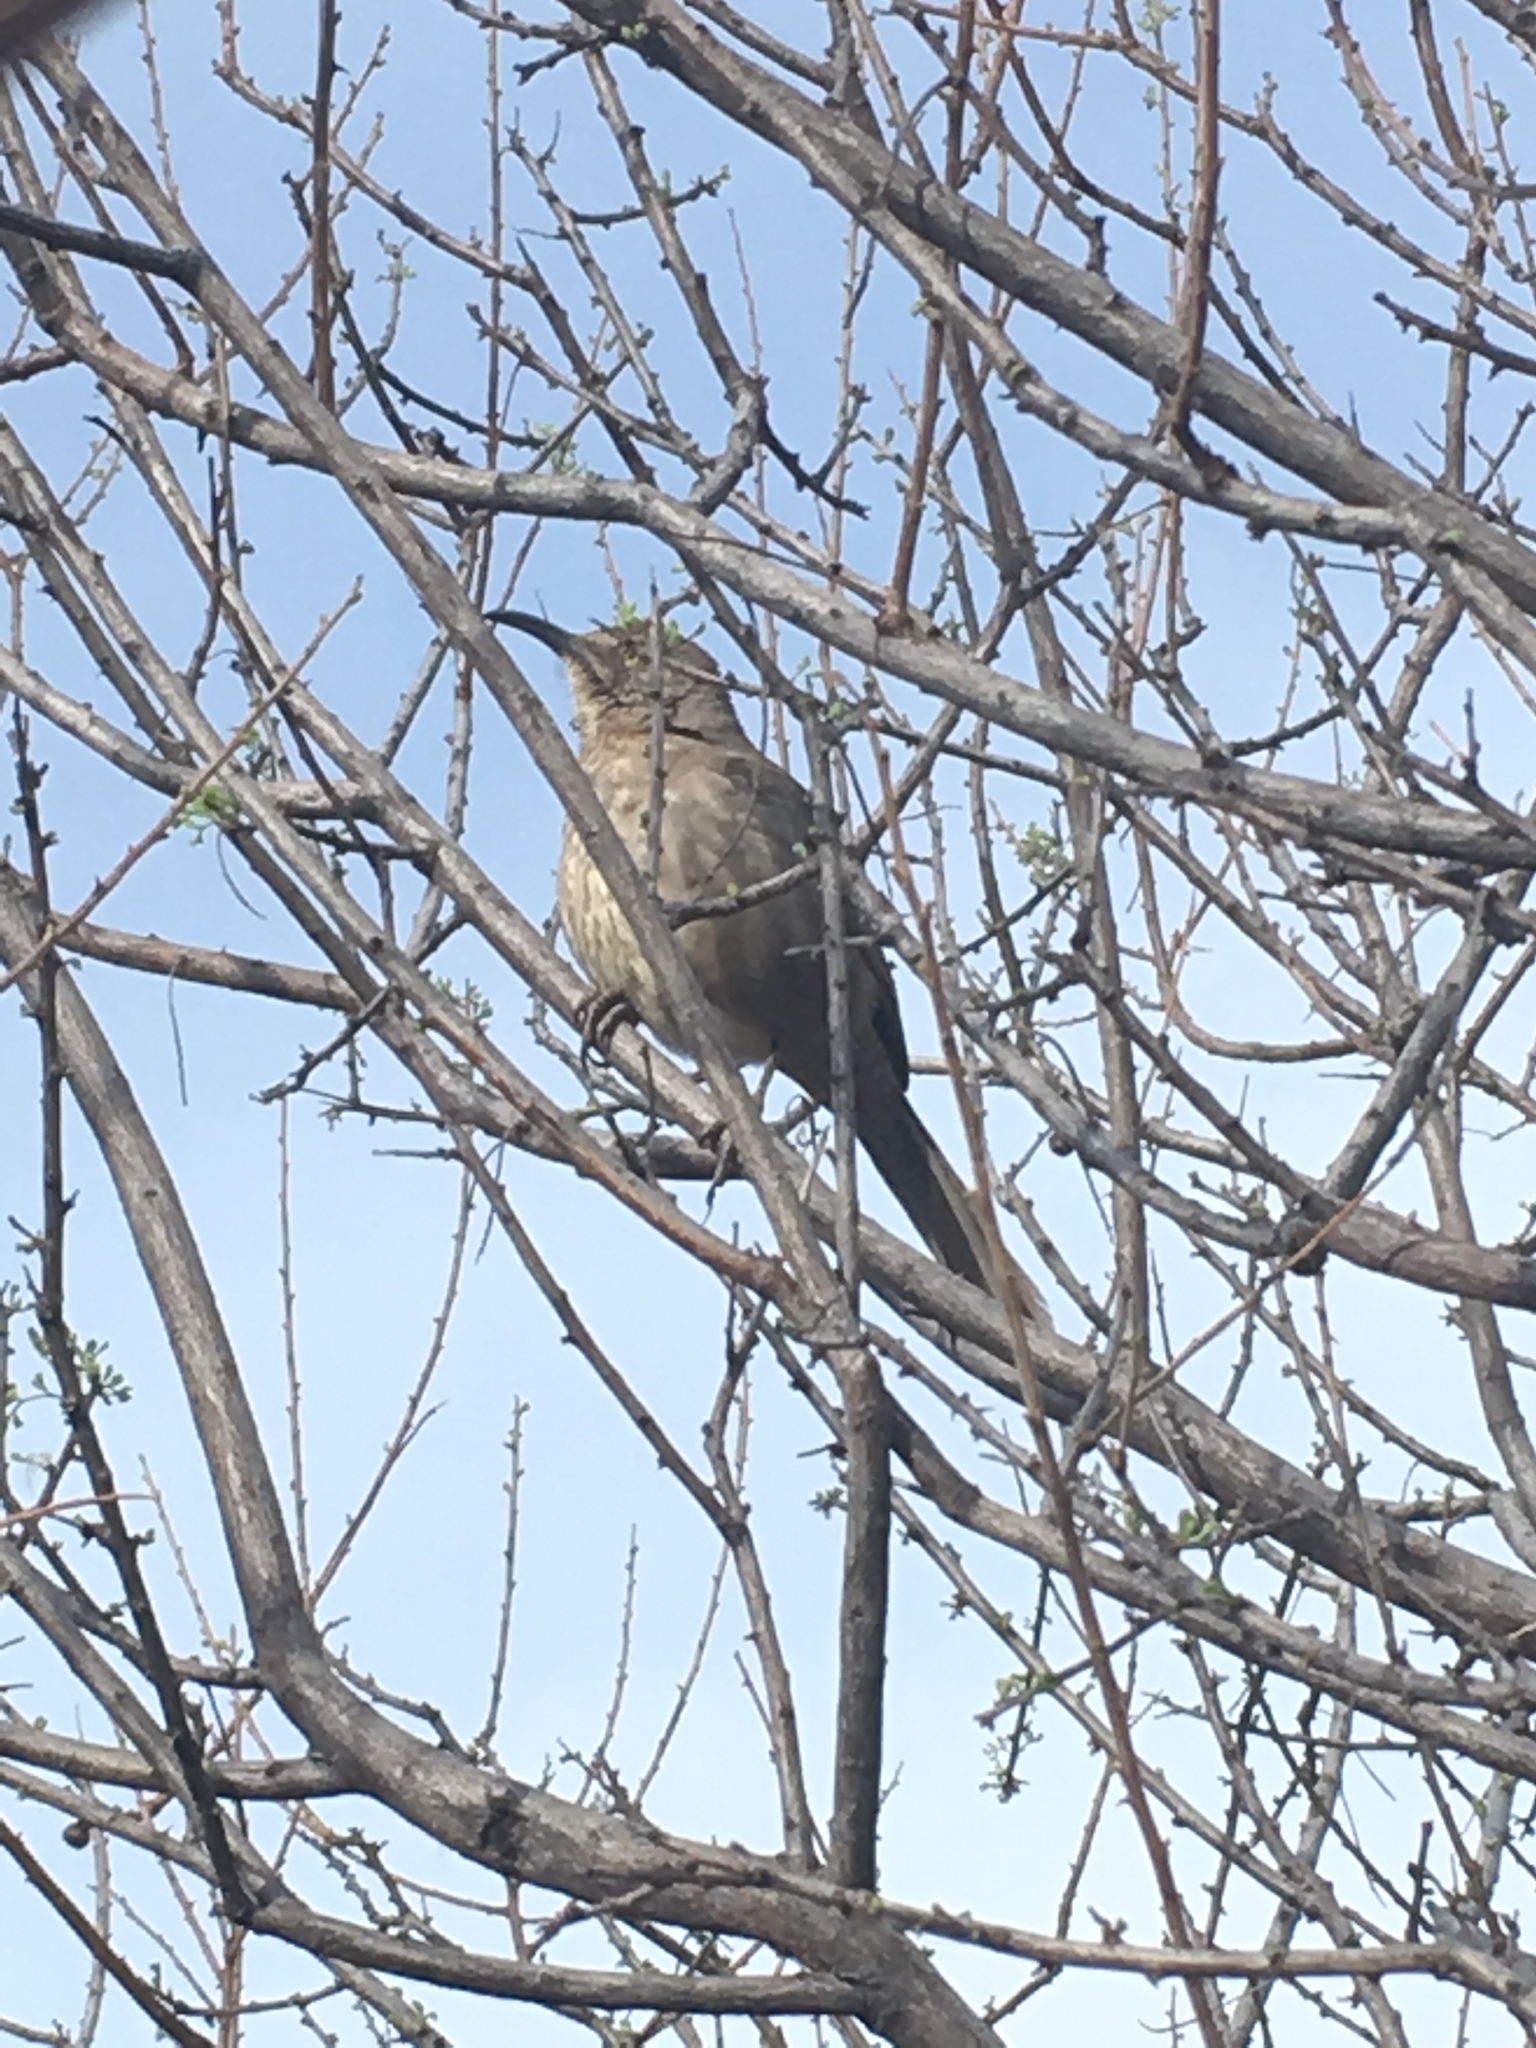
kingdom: Animalia
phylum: Chordata
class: Aves
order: Passeriformes
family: Mimidae
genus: Toxostoma
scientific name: Toxostoma curvirostre
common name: Curve-billed thrasher
